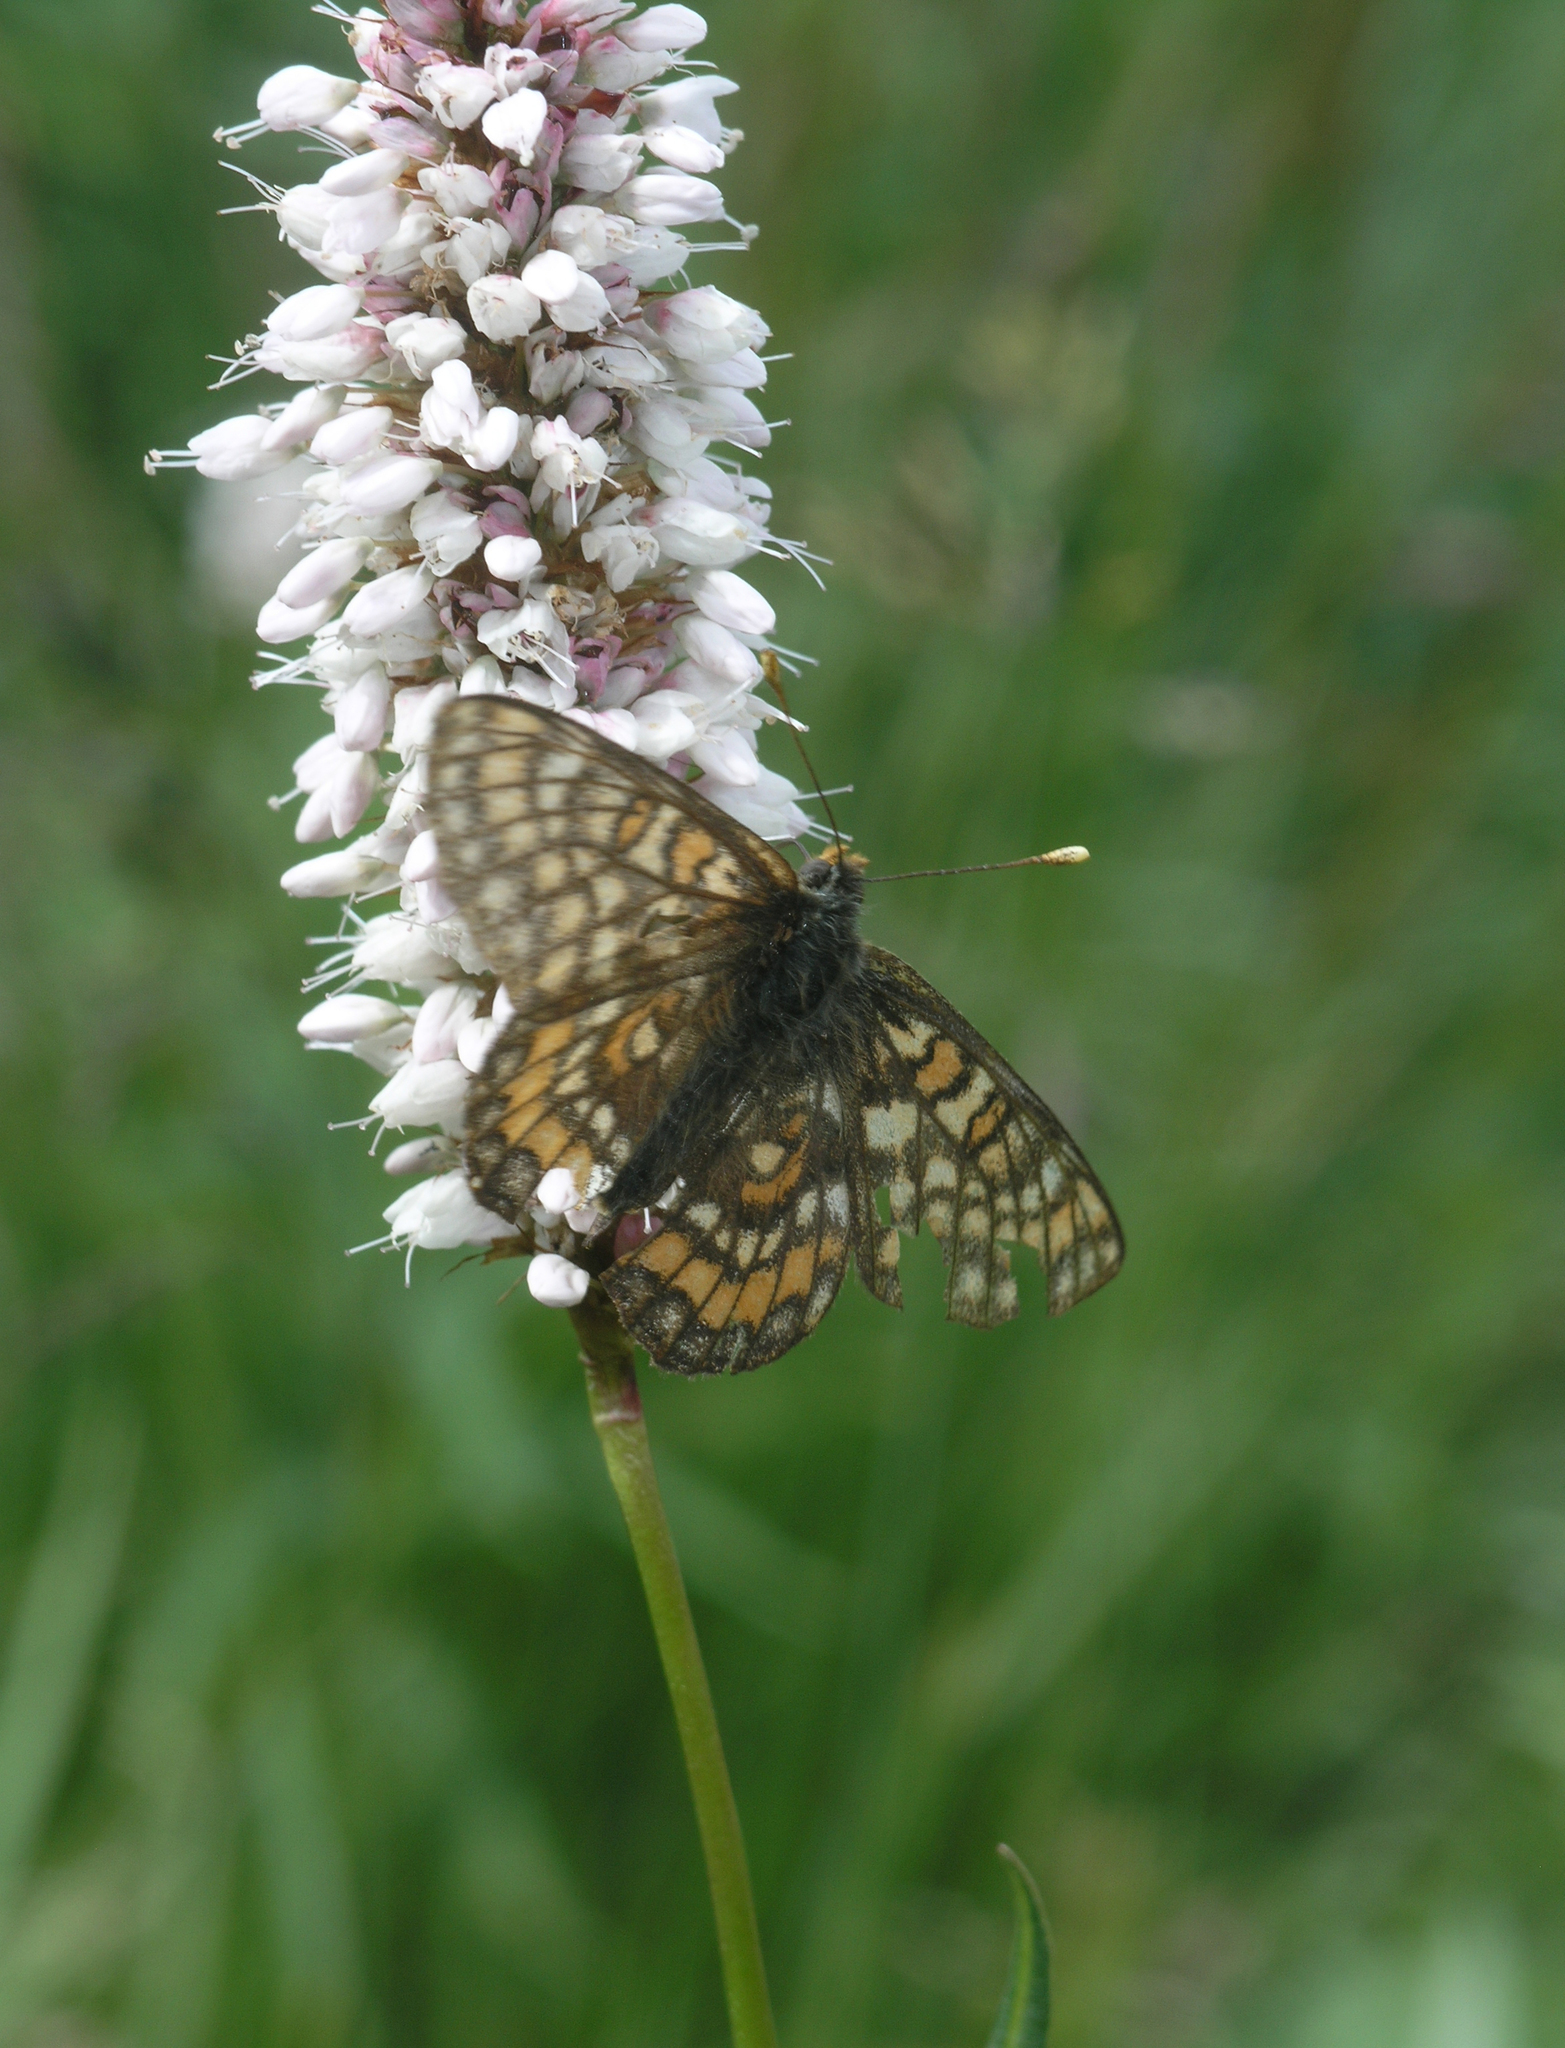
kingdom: Plantae
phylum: Tracheophyta
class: Magnoliopsida
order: Caryophyllales
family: Polygonaceae
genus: Bistorta
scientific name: Bistorta officinalis
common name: Common bistort
